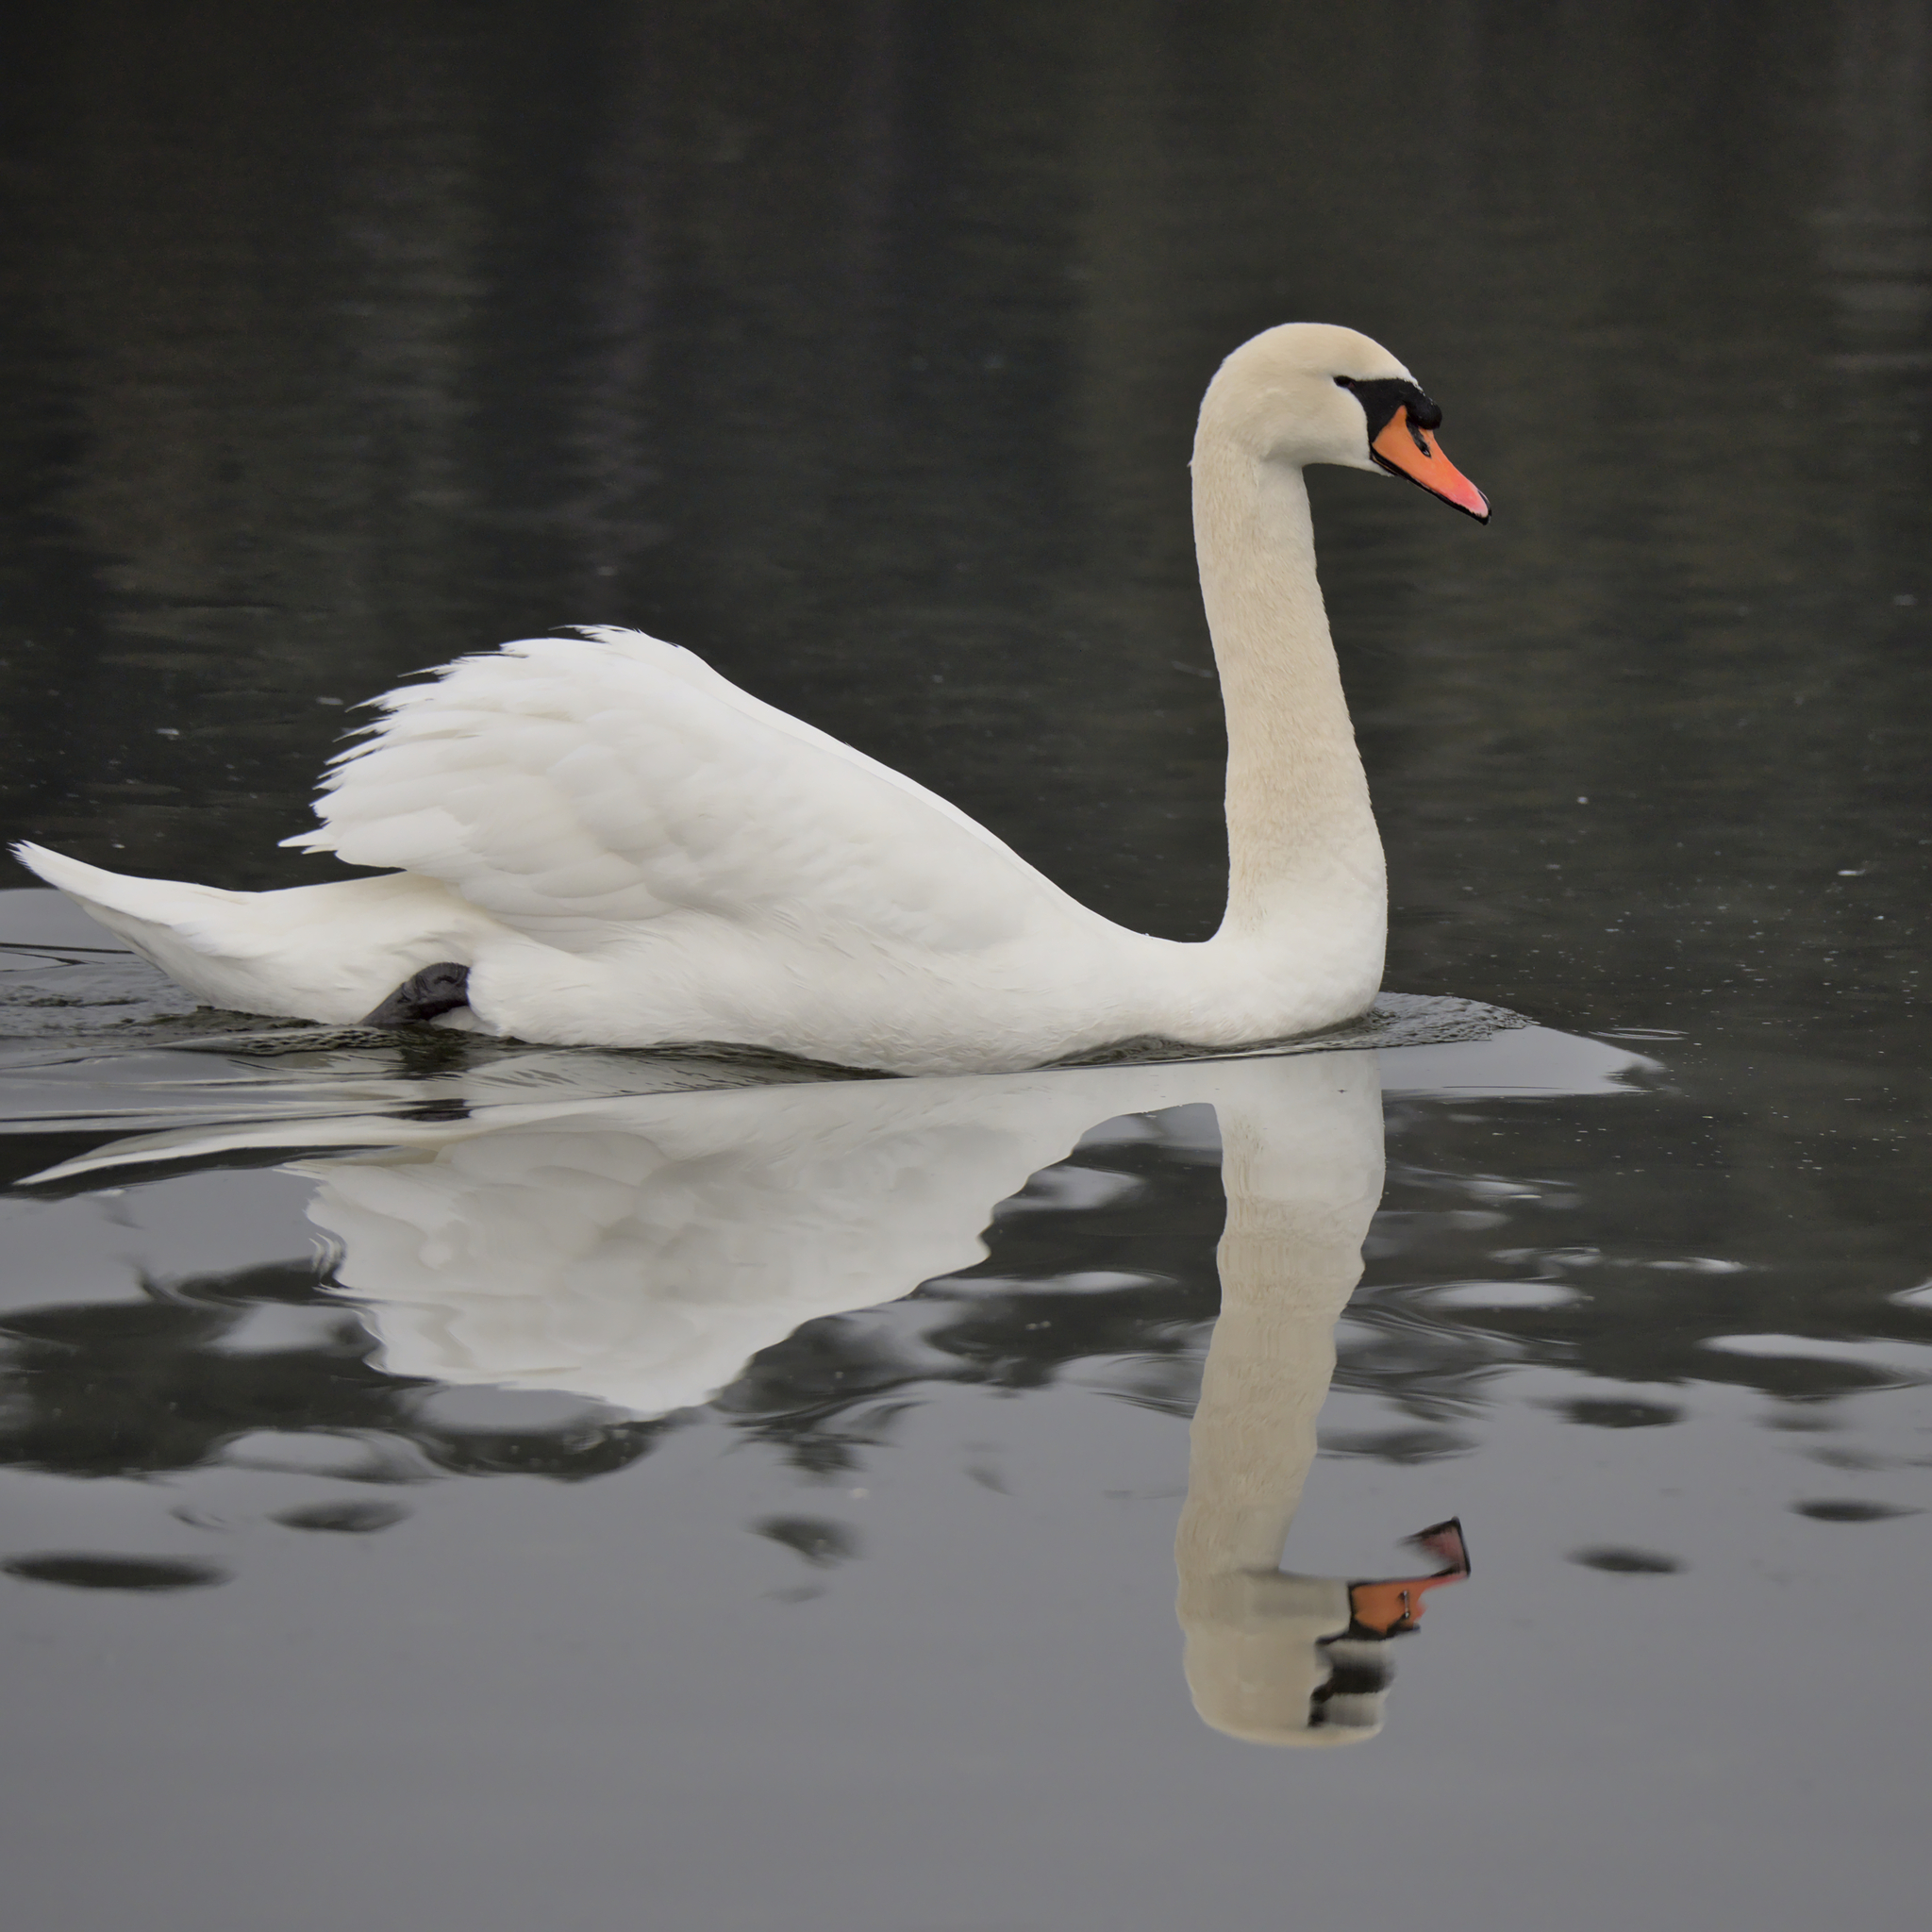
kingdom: Animalia
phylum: Chordata
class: Aves
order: Anseriformes
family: Anatidae
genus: Cygnus
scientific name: Cygnus olor
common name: Mute swan
